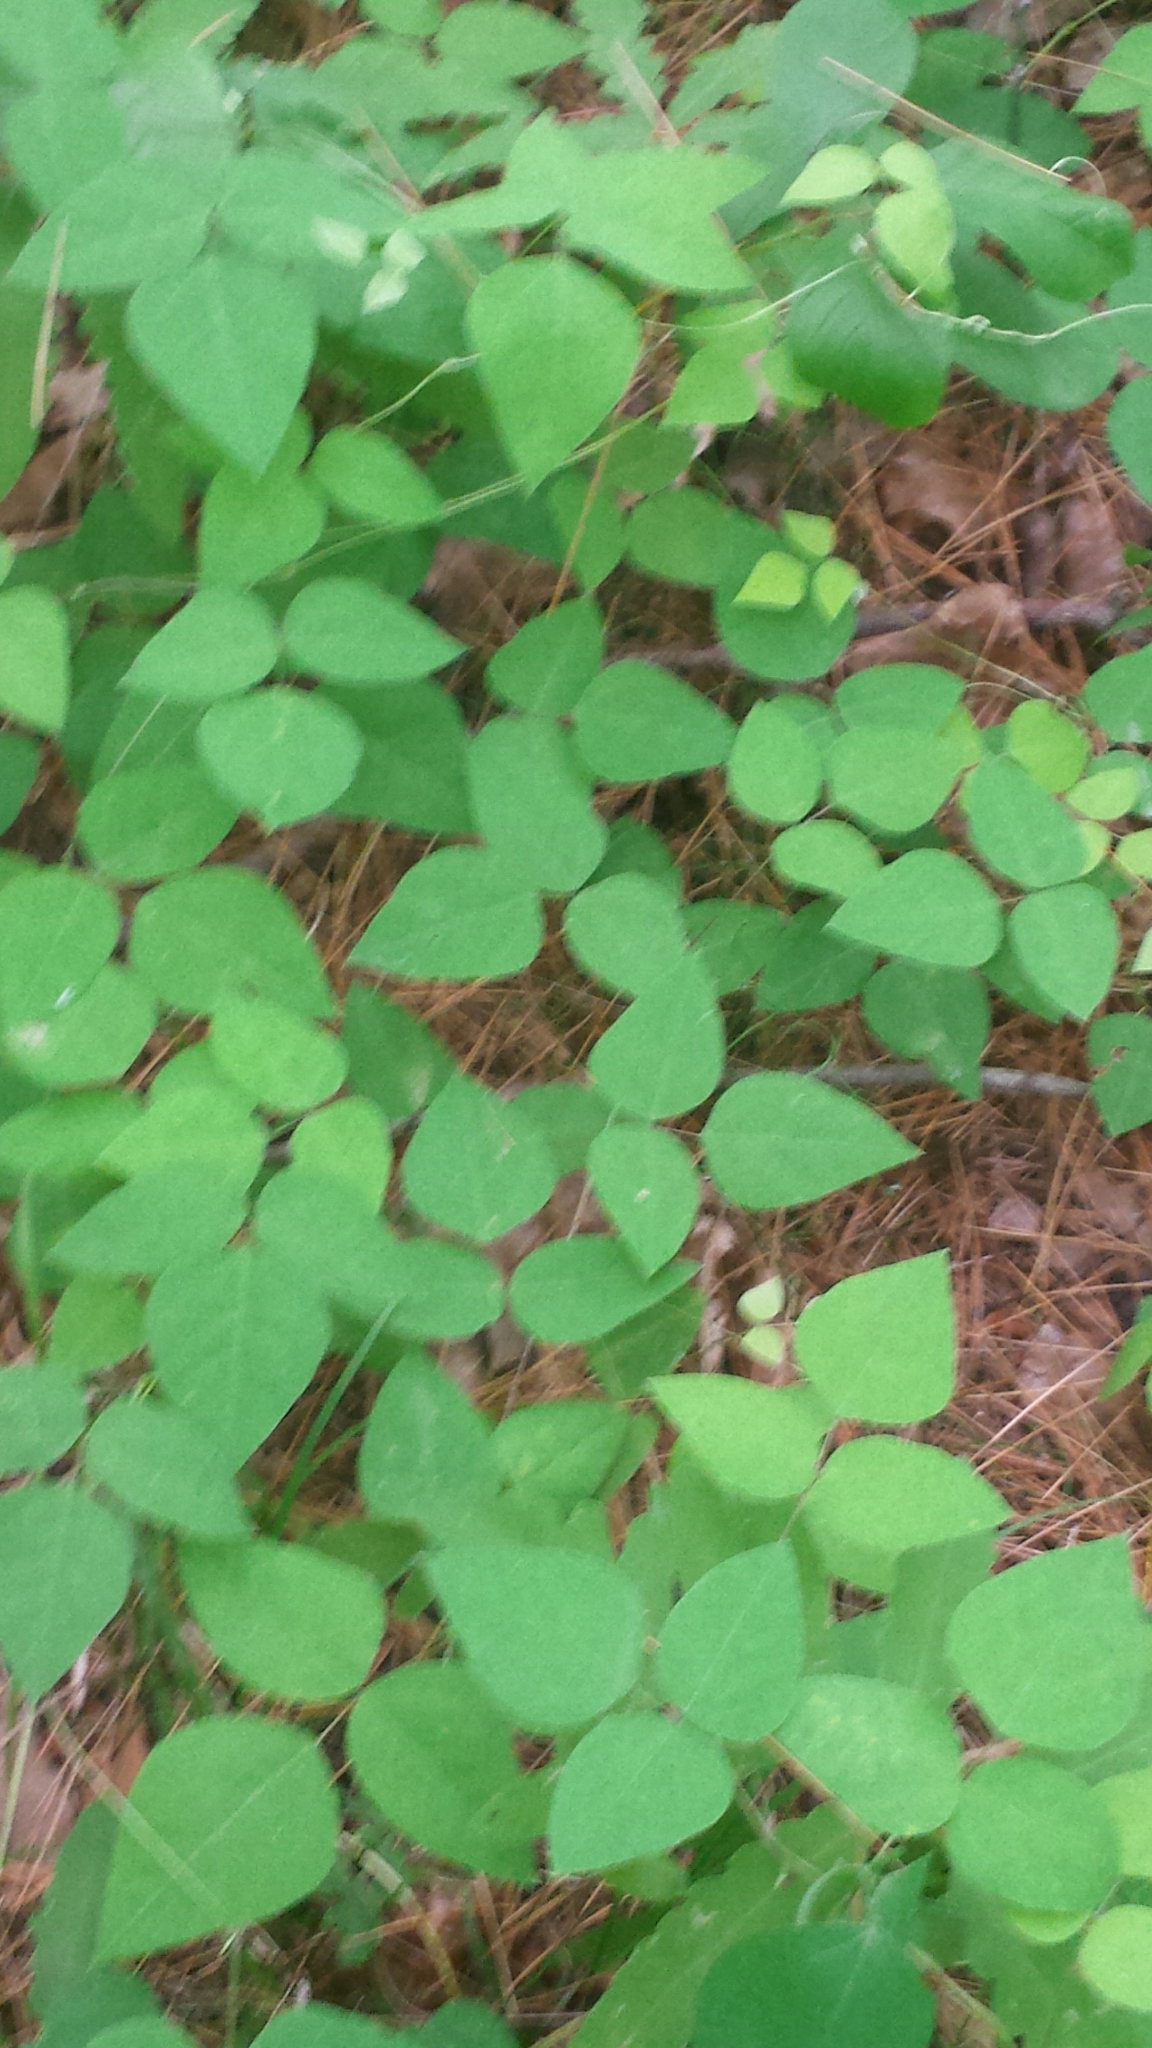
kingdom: Plantae
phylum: Tracheophyta
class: Magnoliopsida
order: Fabales
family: Fabaceae
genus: Amphicarpaea
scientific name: Amphicarpaea bracteata
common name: American hog peanut
